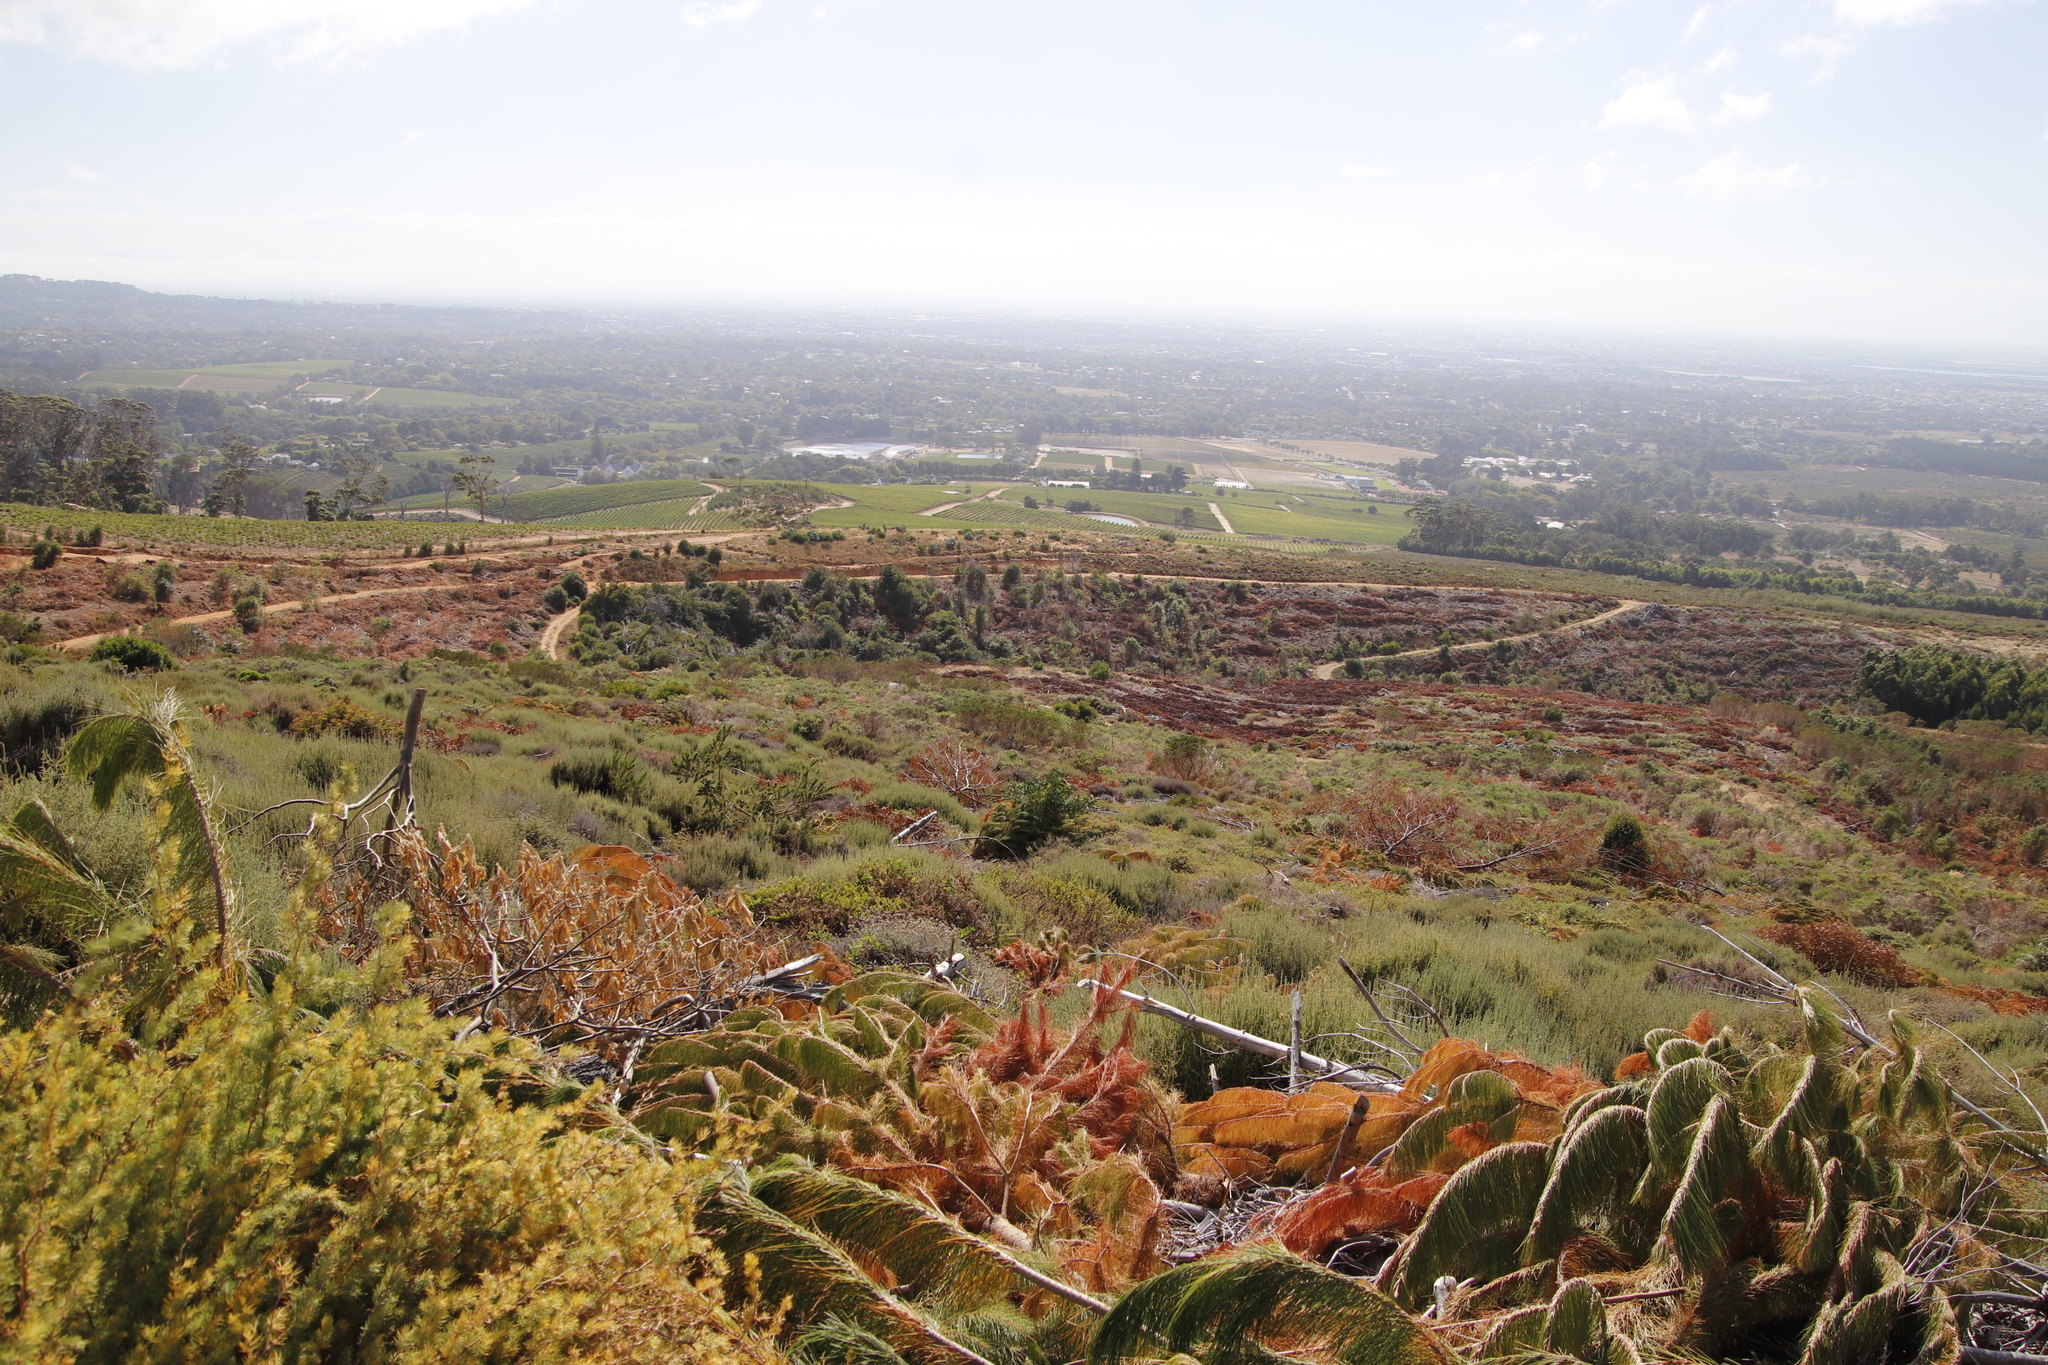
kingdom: Plantae
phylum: Tracheophyta
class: Magnoliopsida
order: Asterales
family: Asteraceae
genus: Seriphium
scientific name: Seriphium cinereum
